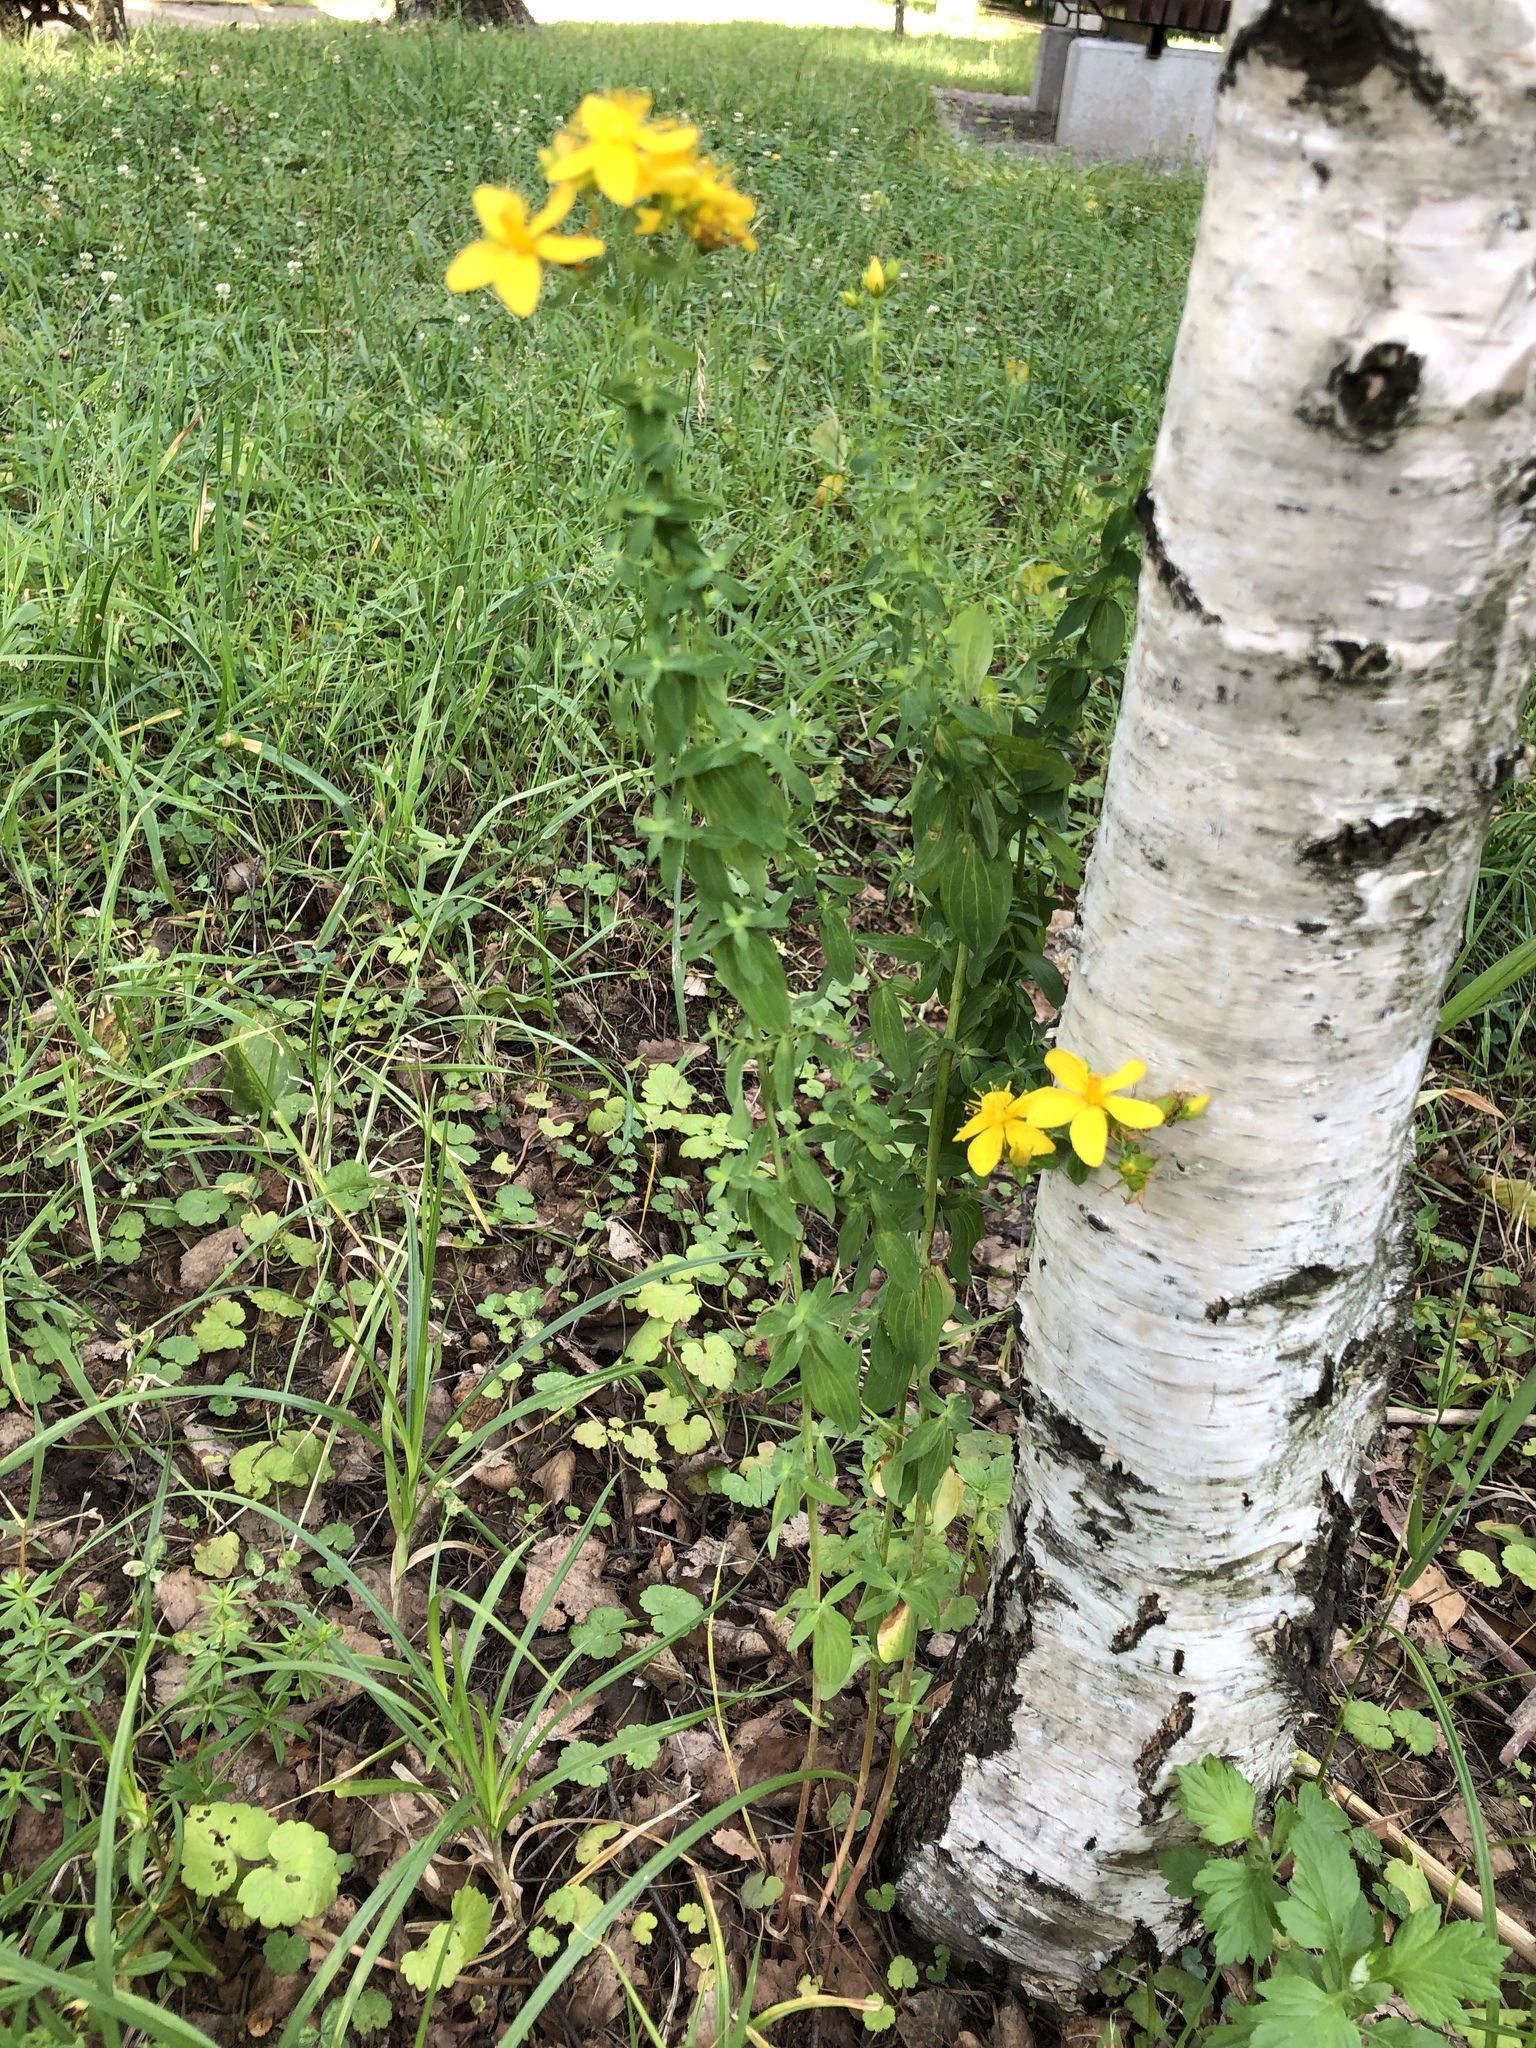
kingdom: Plantae
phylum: Tracheophyta
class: Magnoliopsida
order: Malpighiales
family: Hypericaceae
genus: Hypericum
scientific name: Hypericum perforatum
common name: Common st. johnswort
